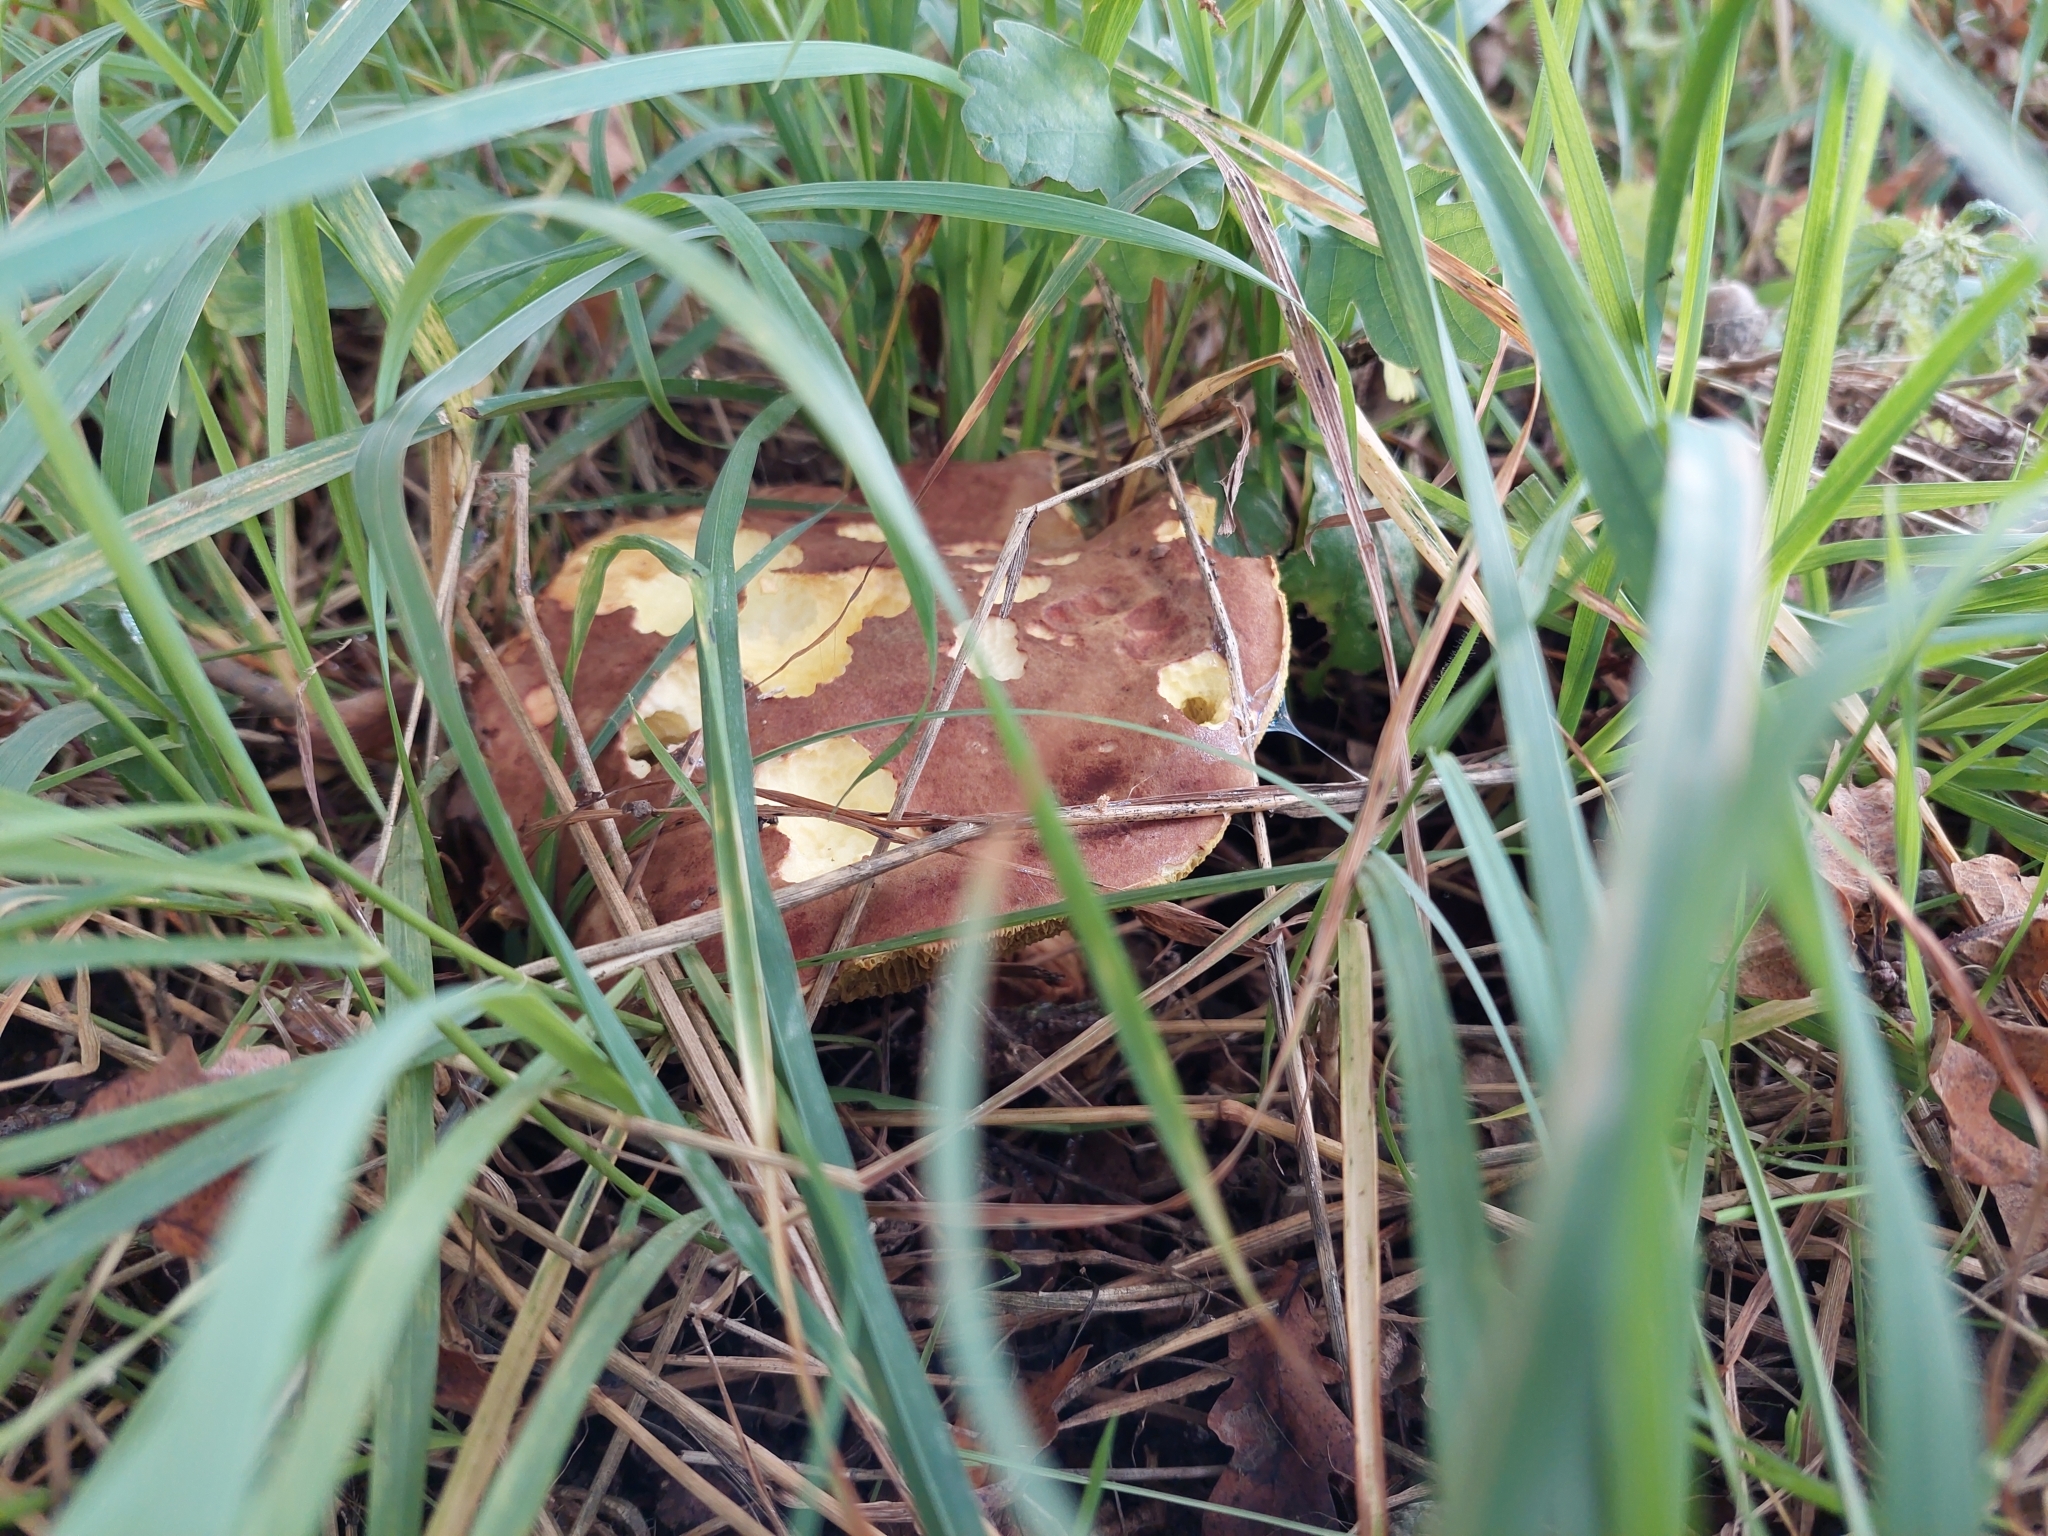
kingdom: Fungi
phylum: Basidiomycota
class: Agaricomycetes
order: Boletales
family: Boletaceae
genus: Boletus
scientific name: Boletus reticulatus
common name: Summer bolete
